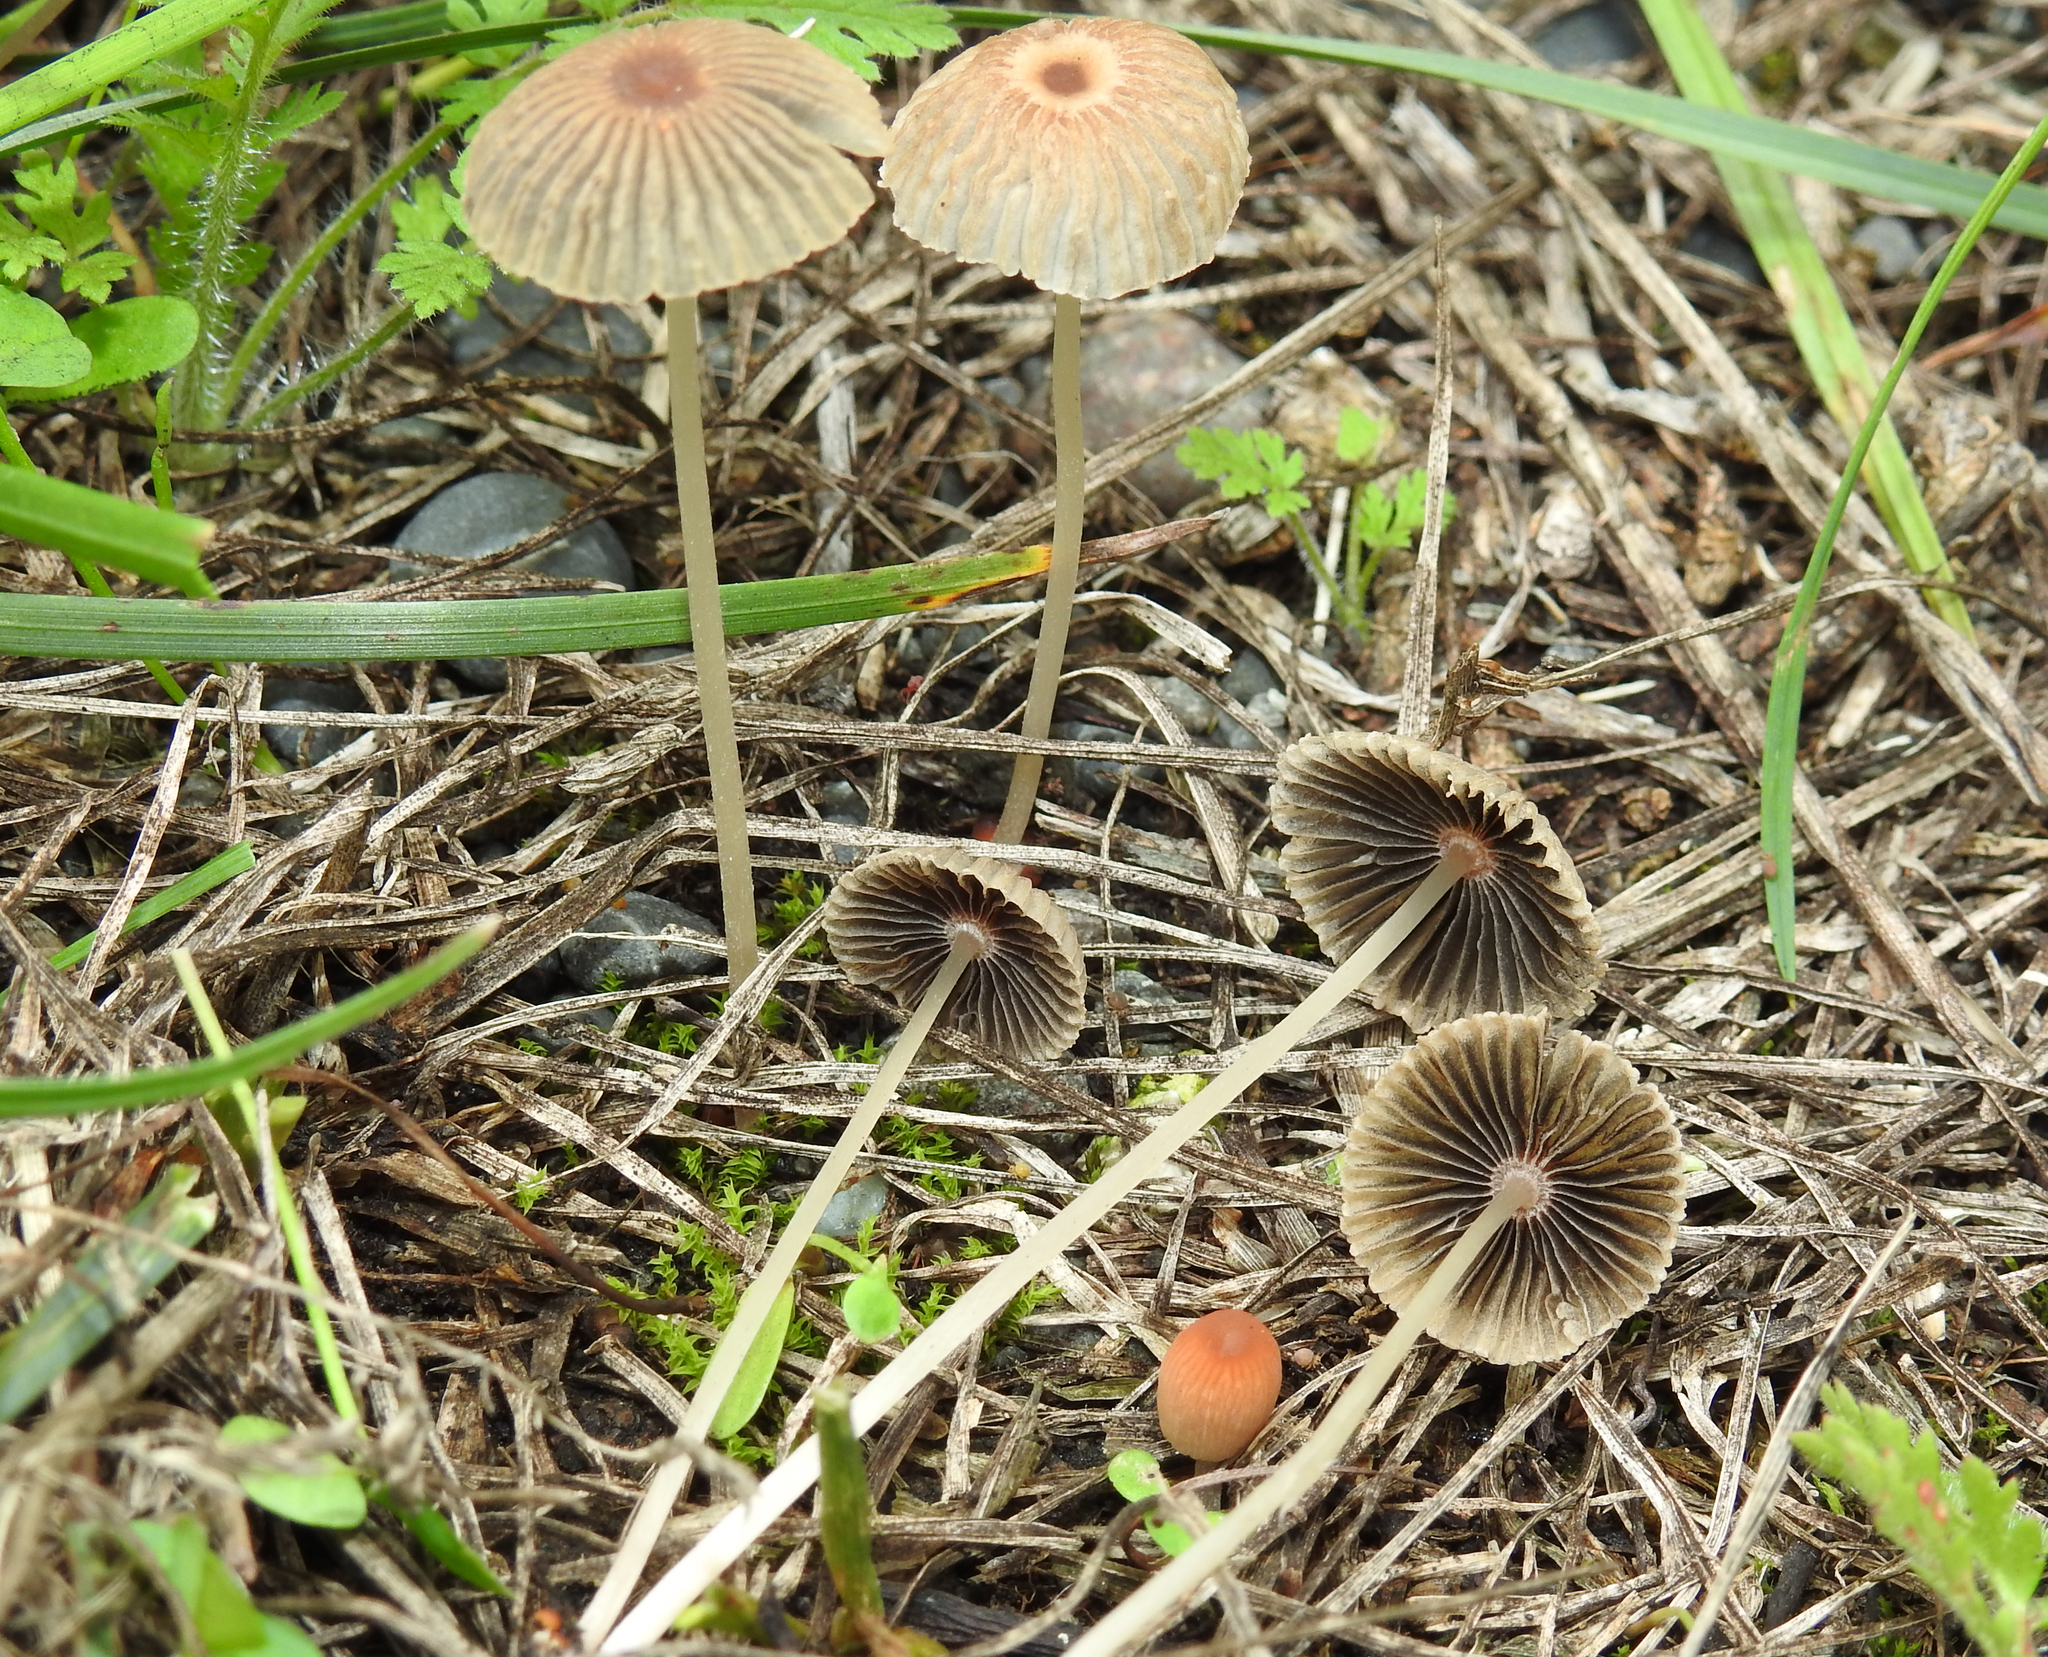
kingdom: Fungi
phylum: Basidiomycota
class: Agaricomycetes
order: Agaricales
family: Psathyrellaceae
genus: Parasola
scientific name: Parasola hercules
